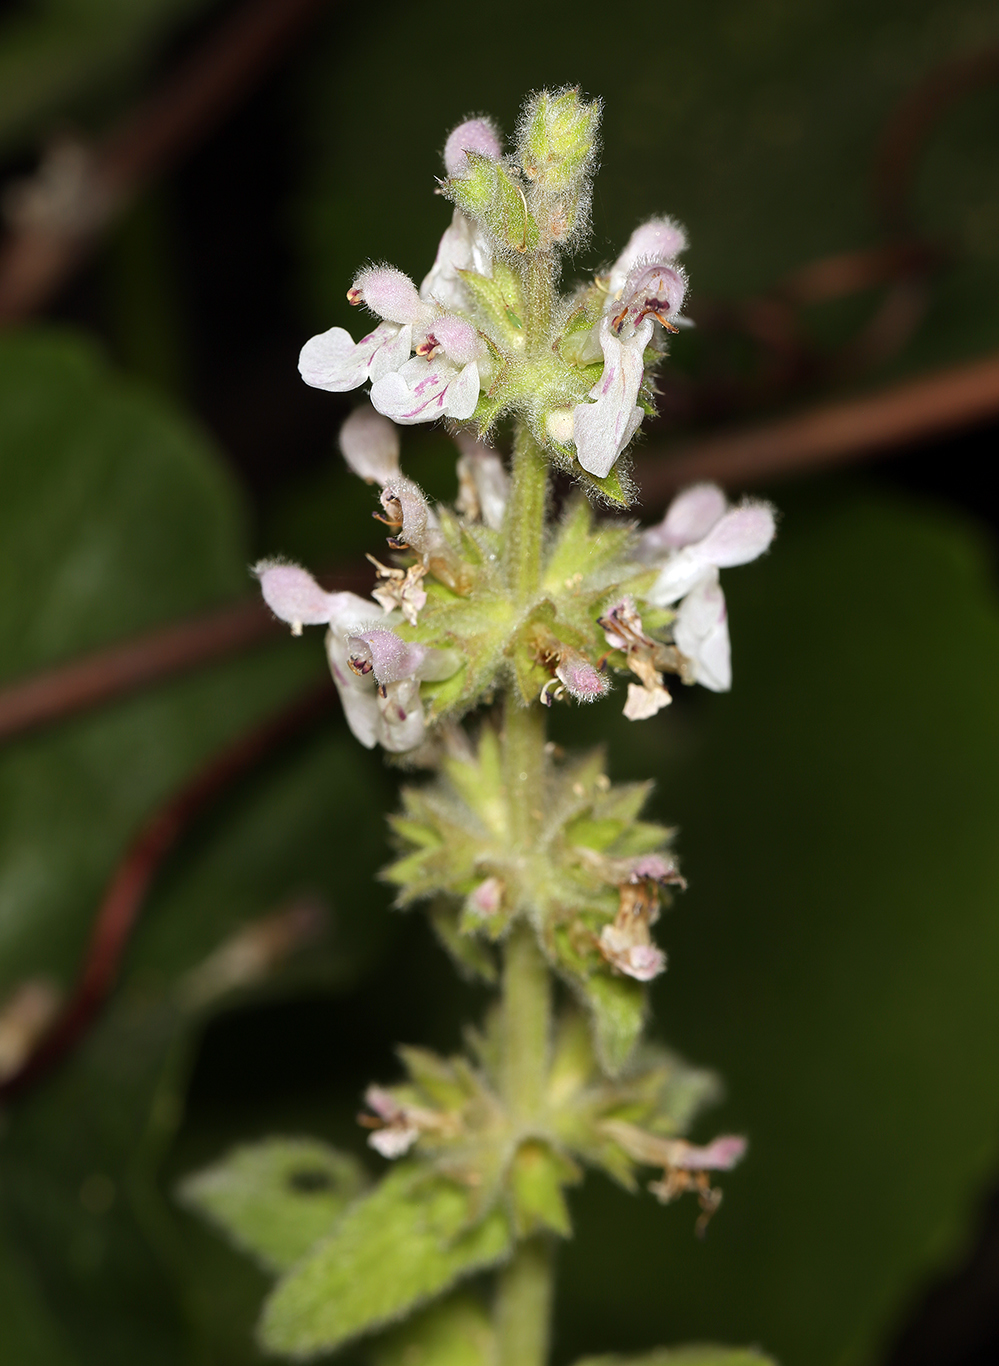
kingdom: Plantae
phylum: Tracheophyta
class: Magnoliopsida
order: Lamiales
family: Lamiaceae
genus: Stachys
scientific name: Stachys albens
